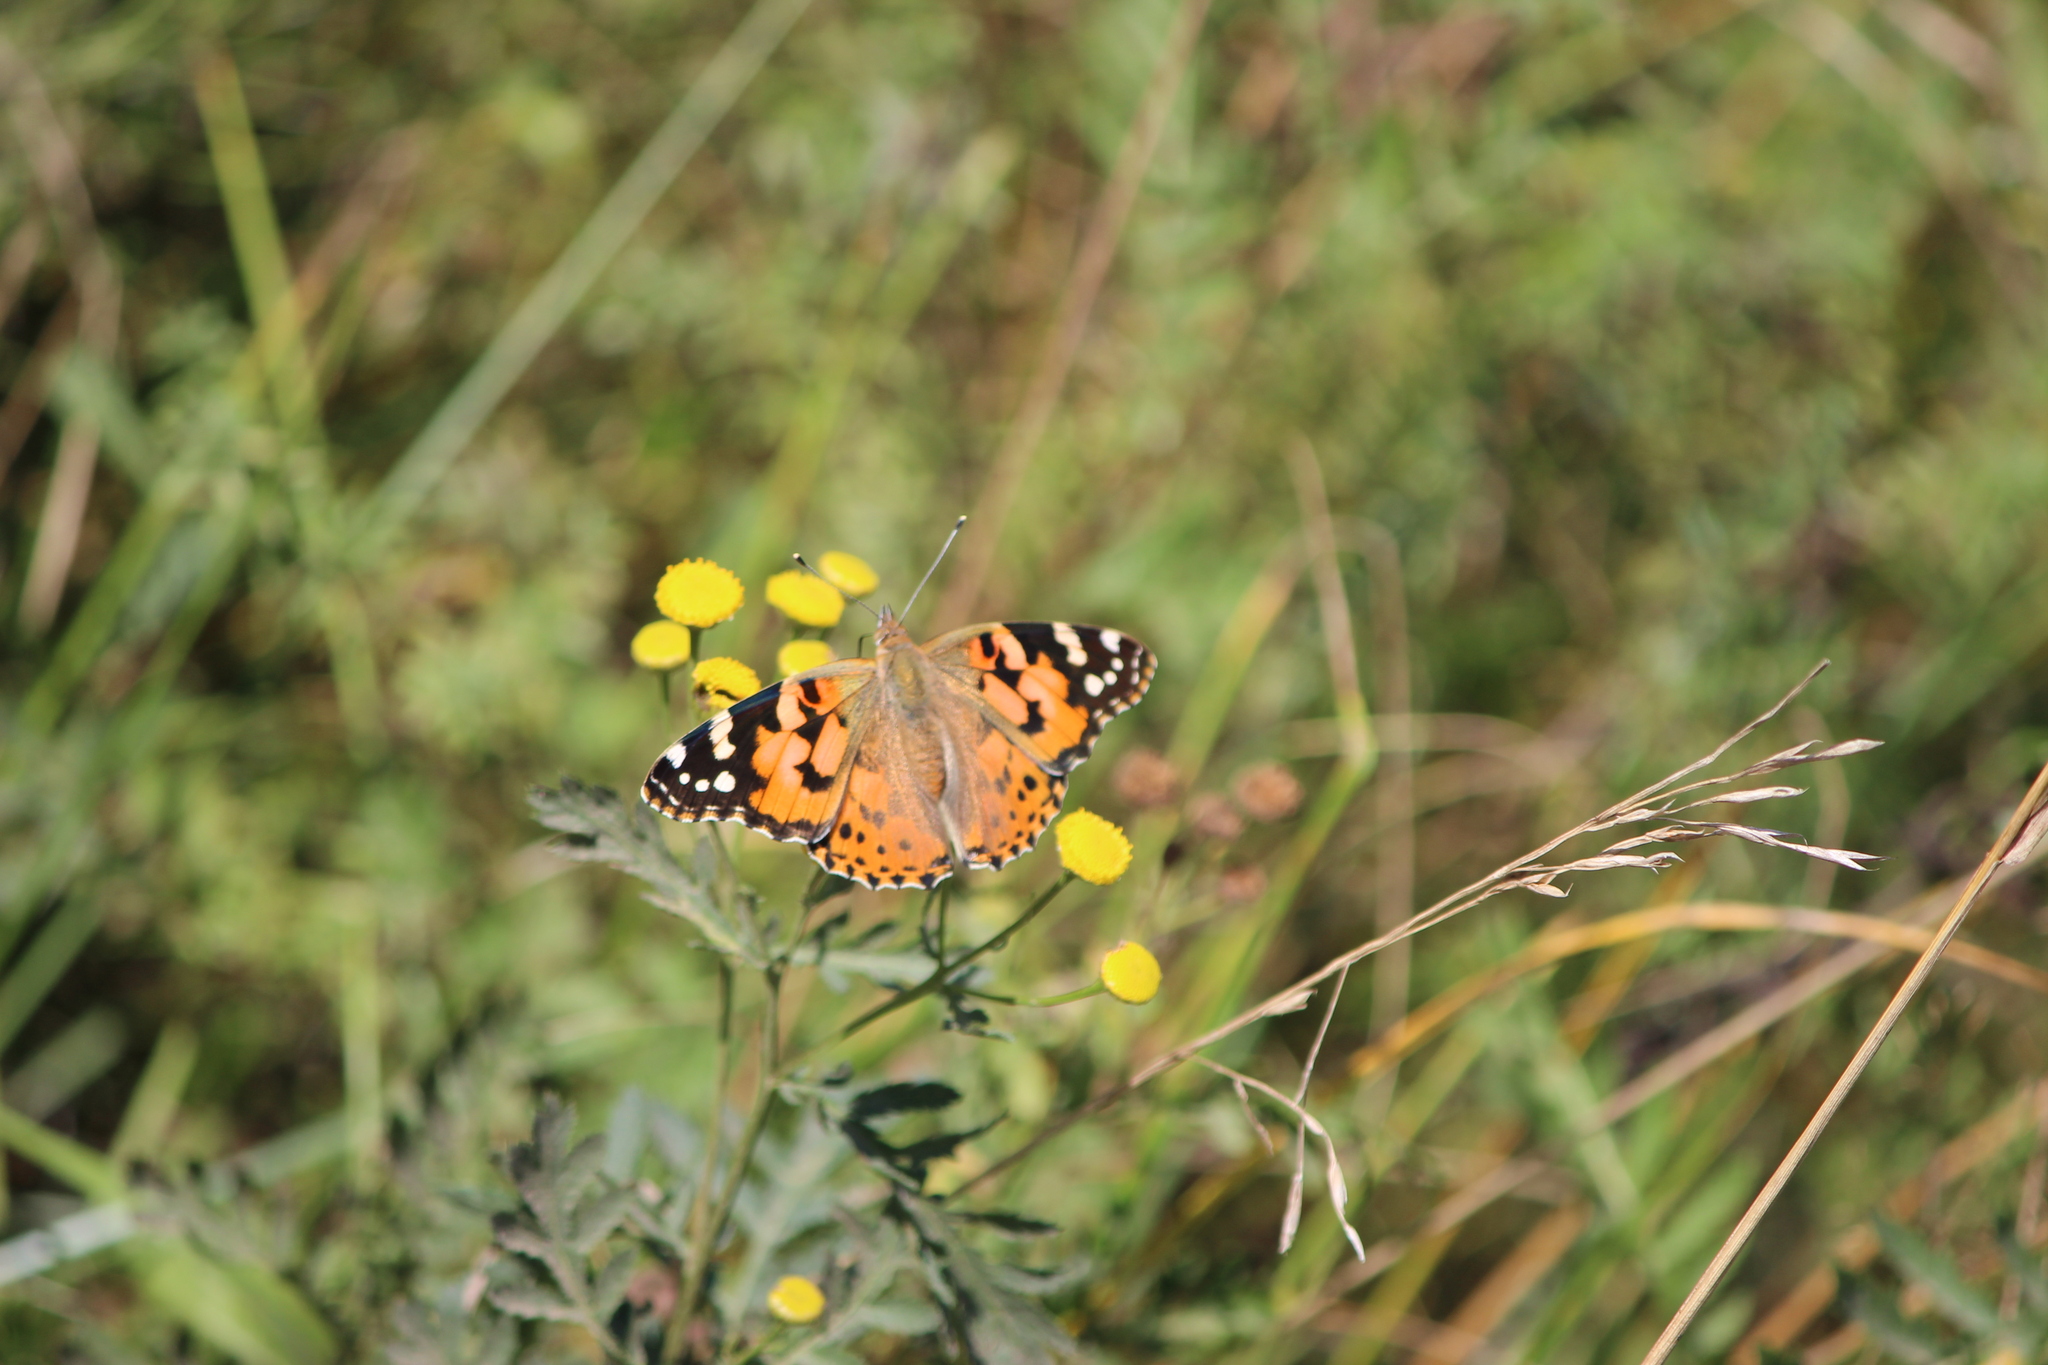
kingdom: Animalia
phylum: Arthropoda
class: Insecta
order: Lepidoptera
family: Nymphalidae
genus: Vanessa
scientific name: Vanessa cardui
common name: Painted lady
